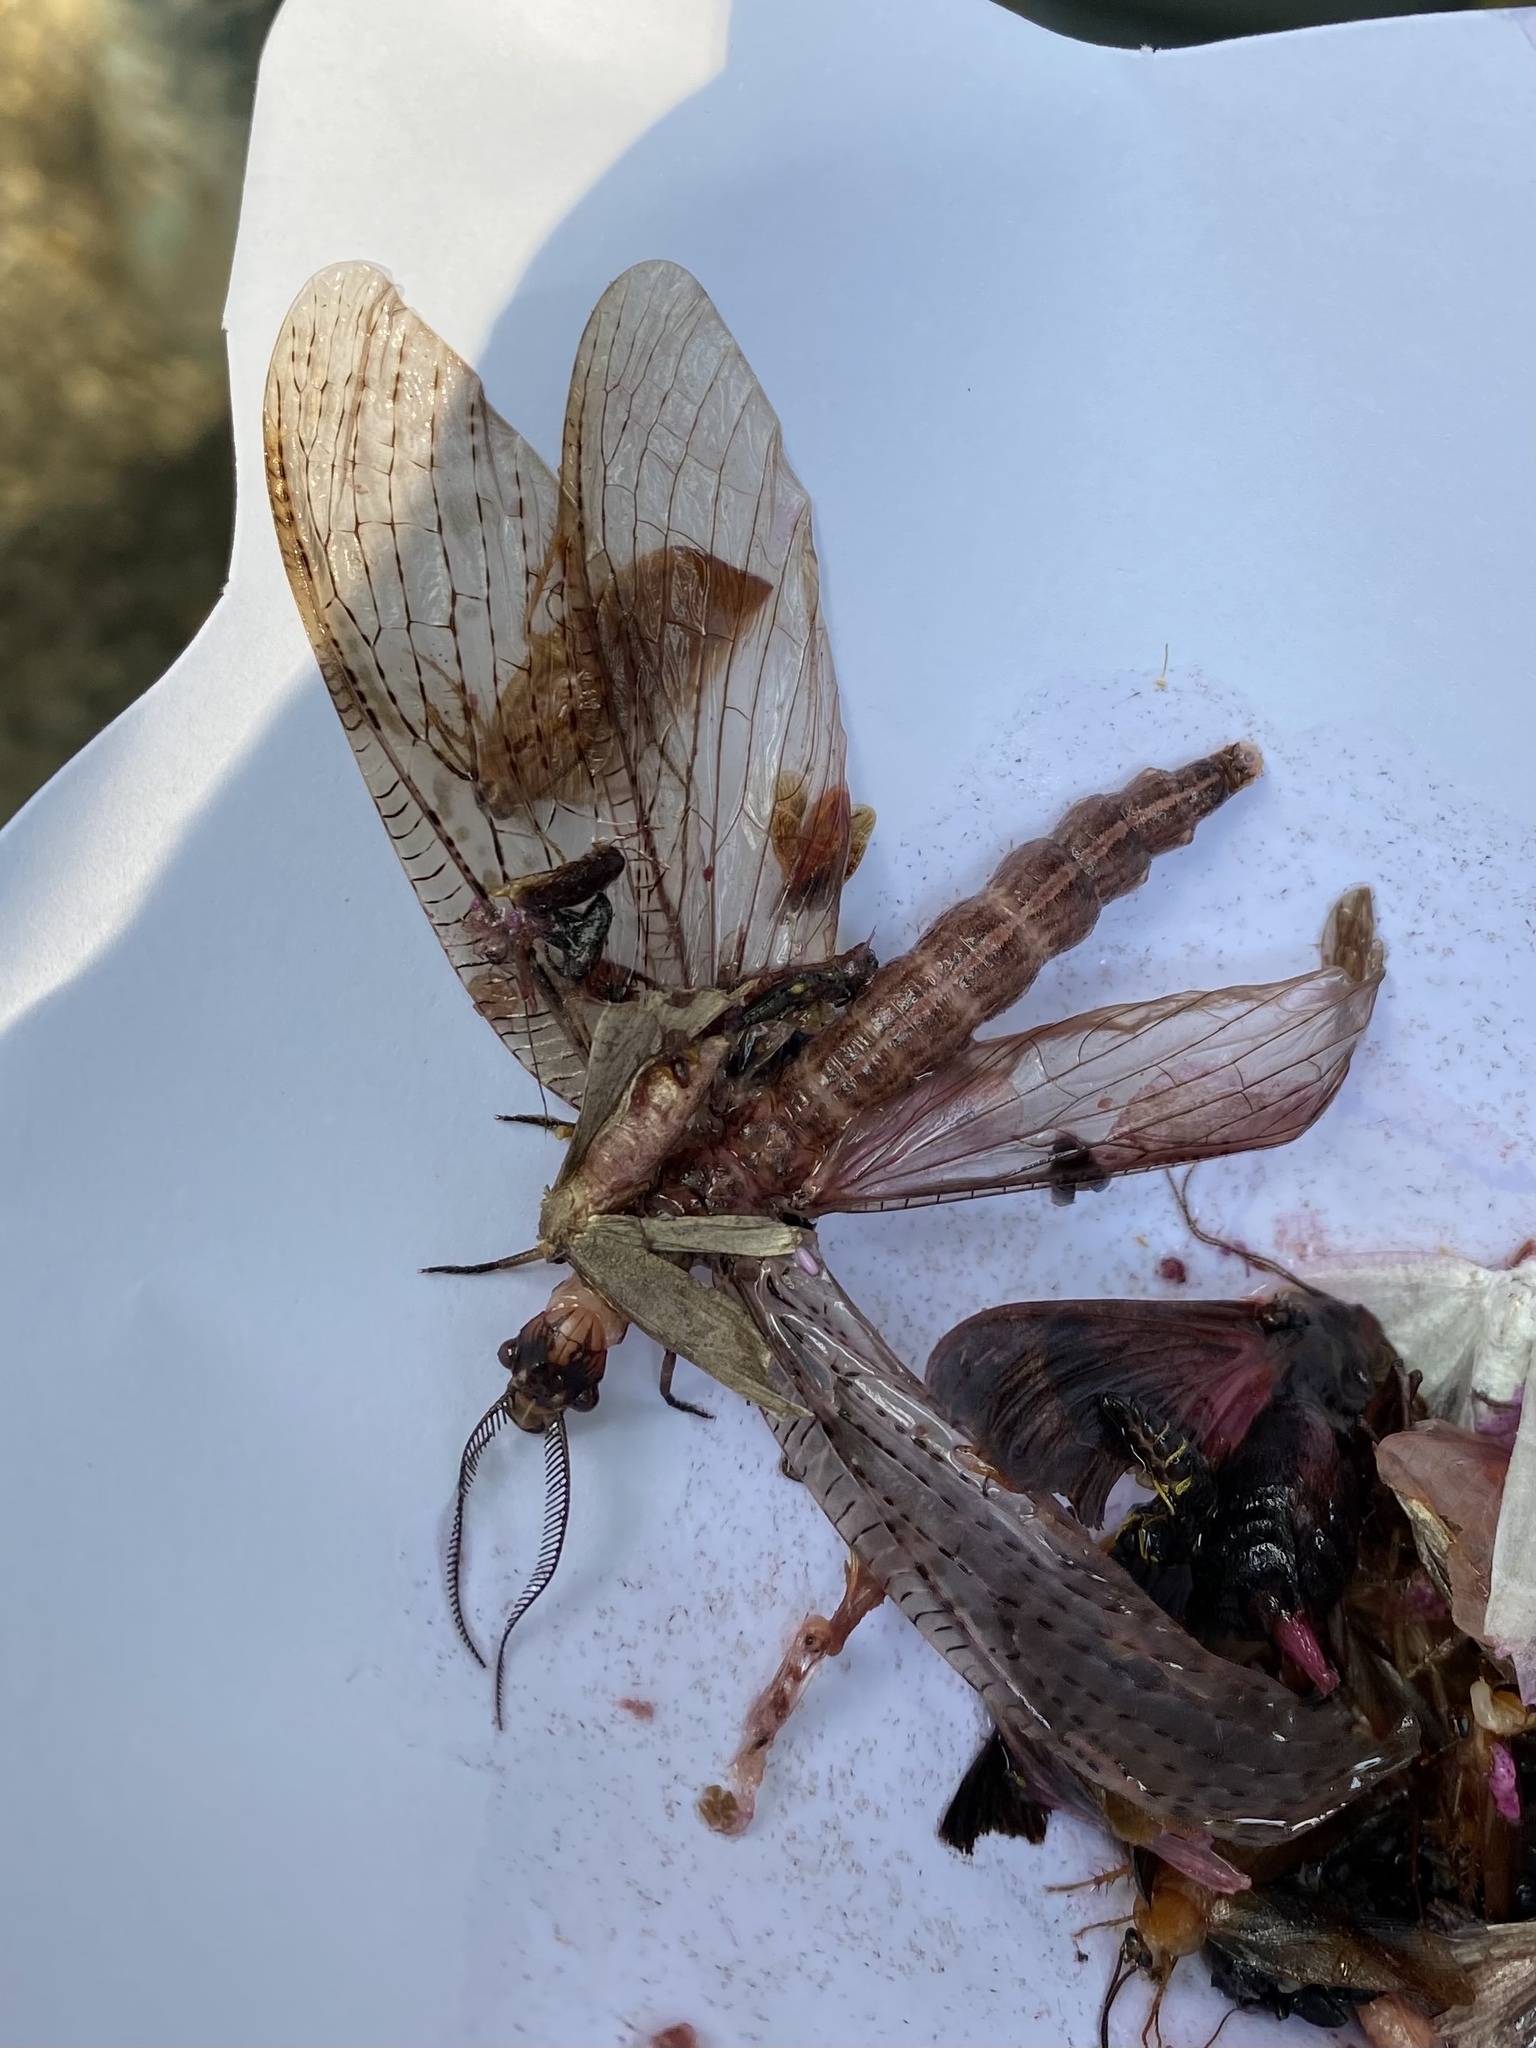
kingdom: Animalia
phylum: Arthropoda
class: Insecta
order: Megaloptera
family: Corydalidae
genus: Chauliodes
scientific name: Chauliodes pectinicornis
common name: Summer fishfly
